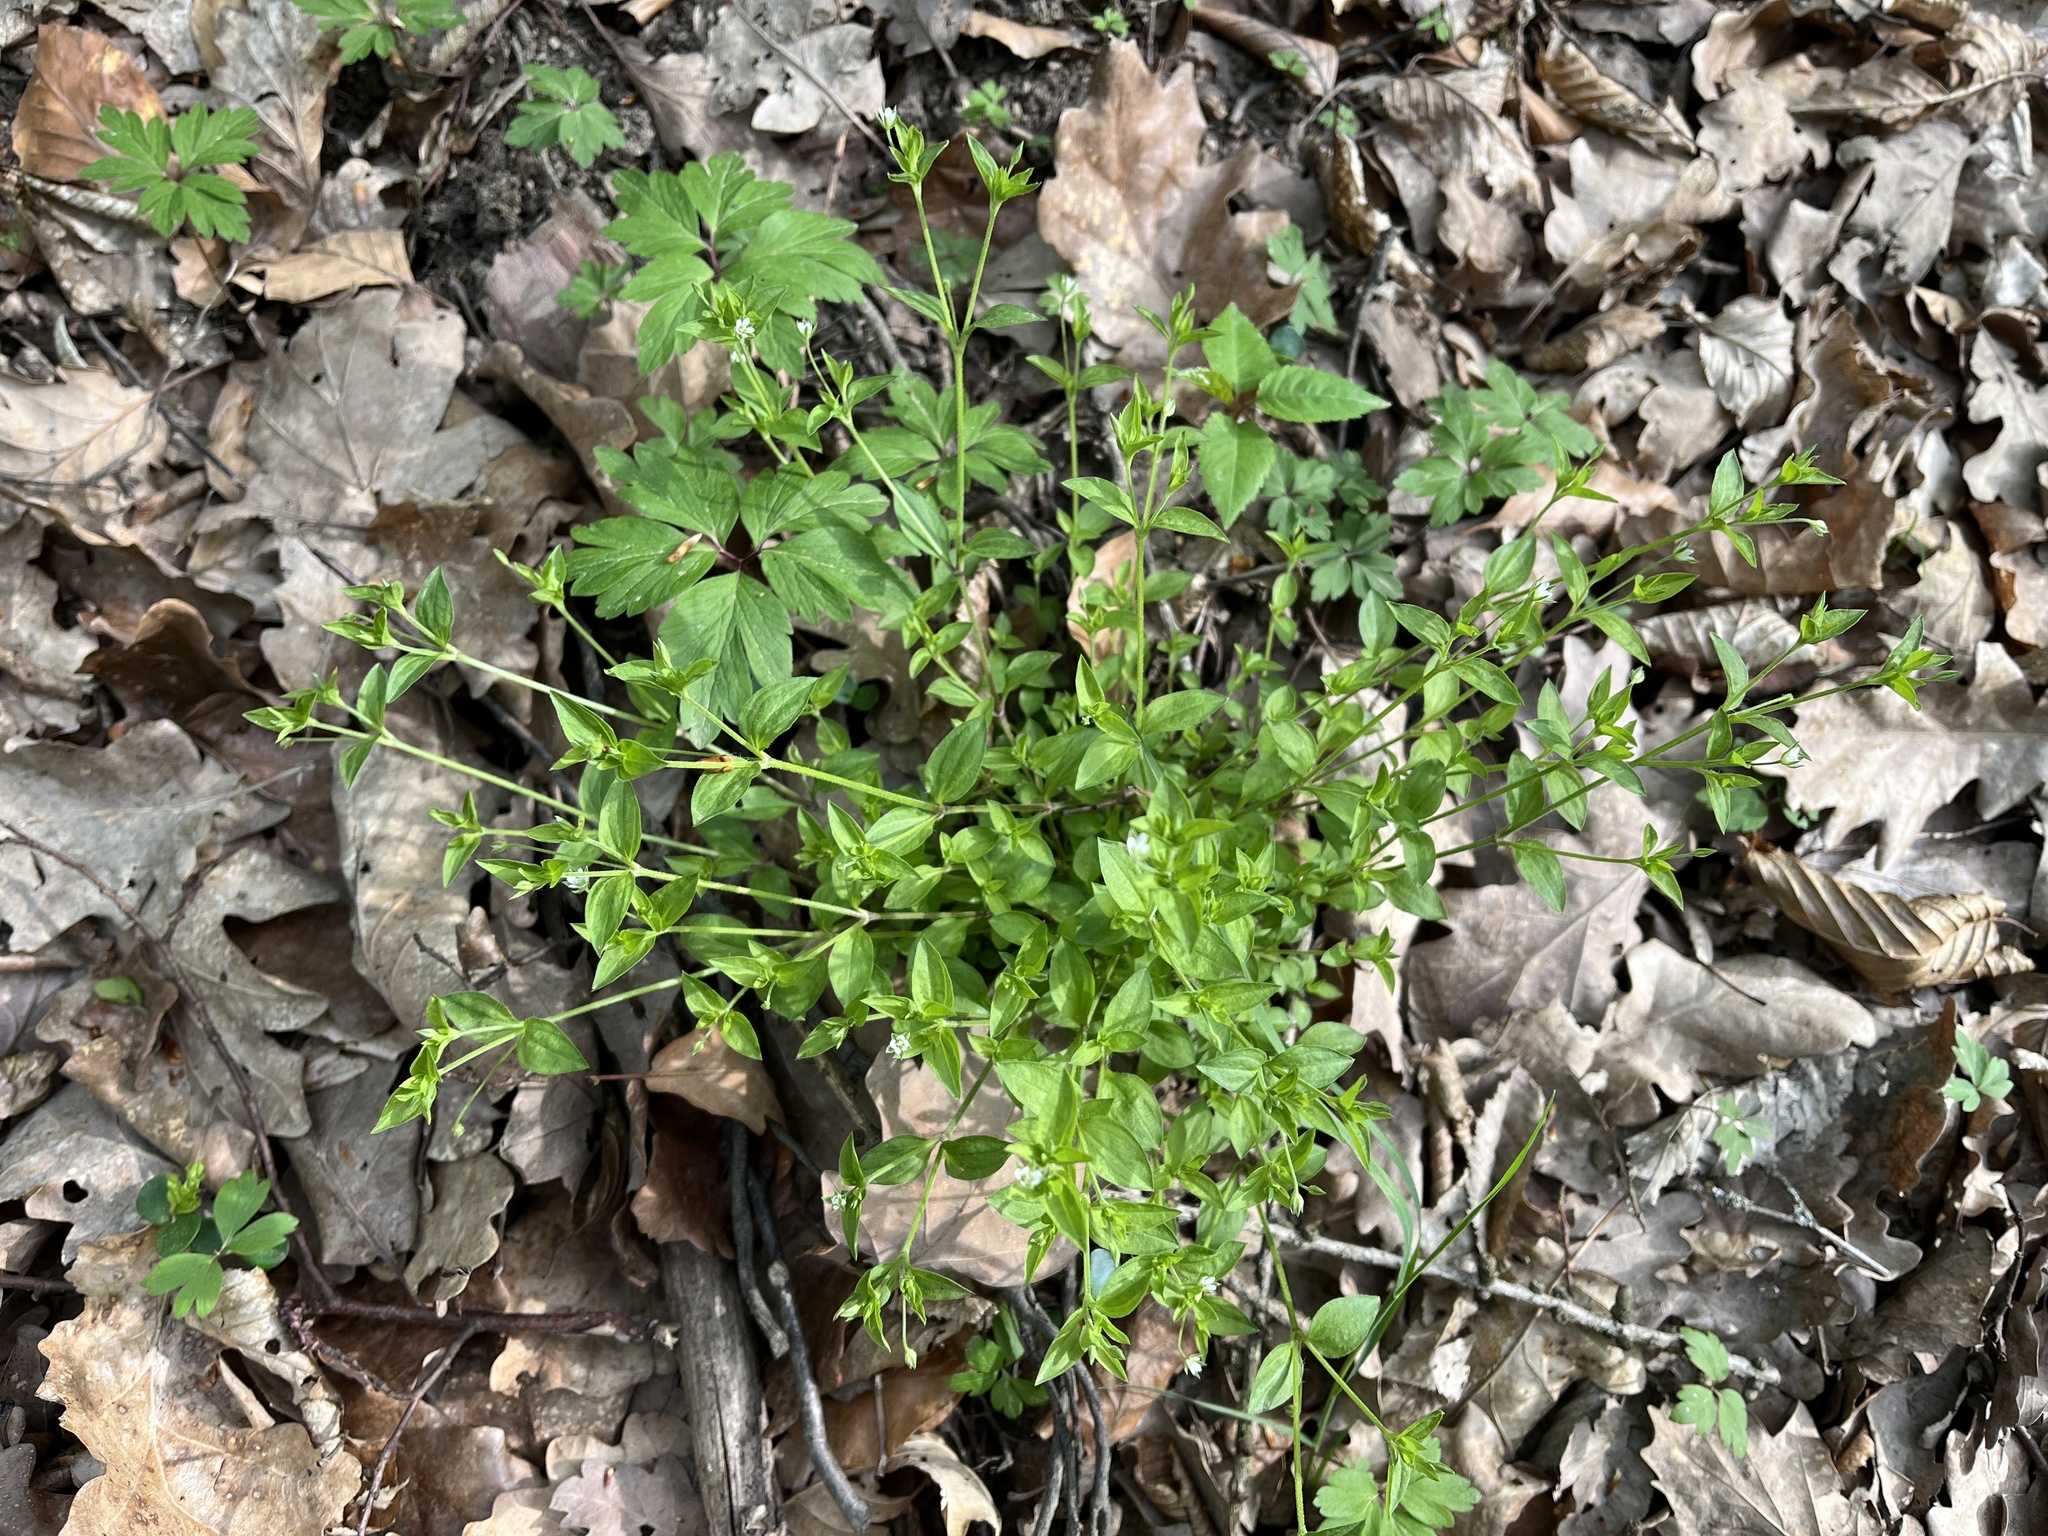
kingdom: Plantae
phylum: Tracheophyta
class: Magnoliopsida
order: Caryophyllales
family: Caryophyllaceae
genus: Moehringia
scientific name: Moehringia trinervia
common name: Three-nerved sandwort
